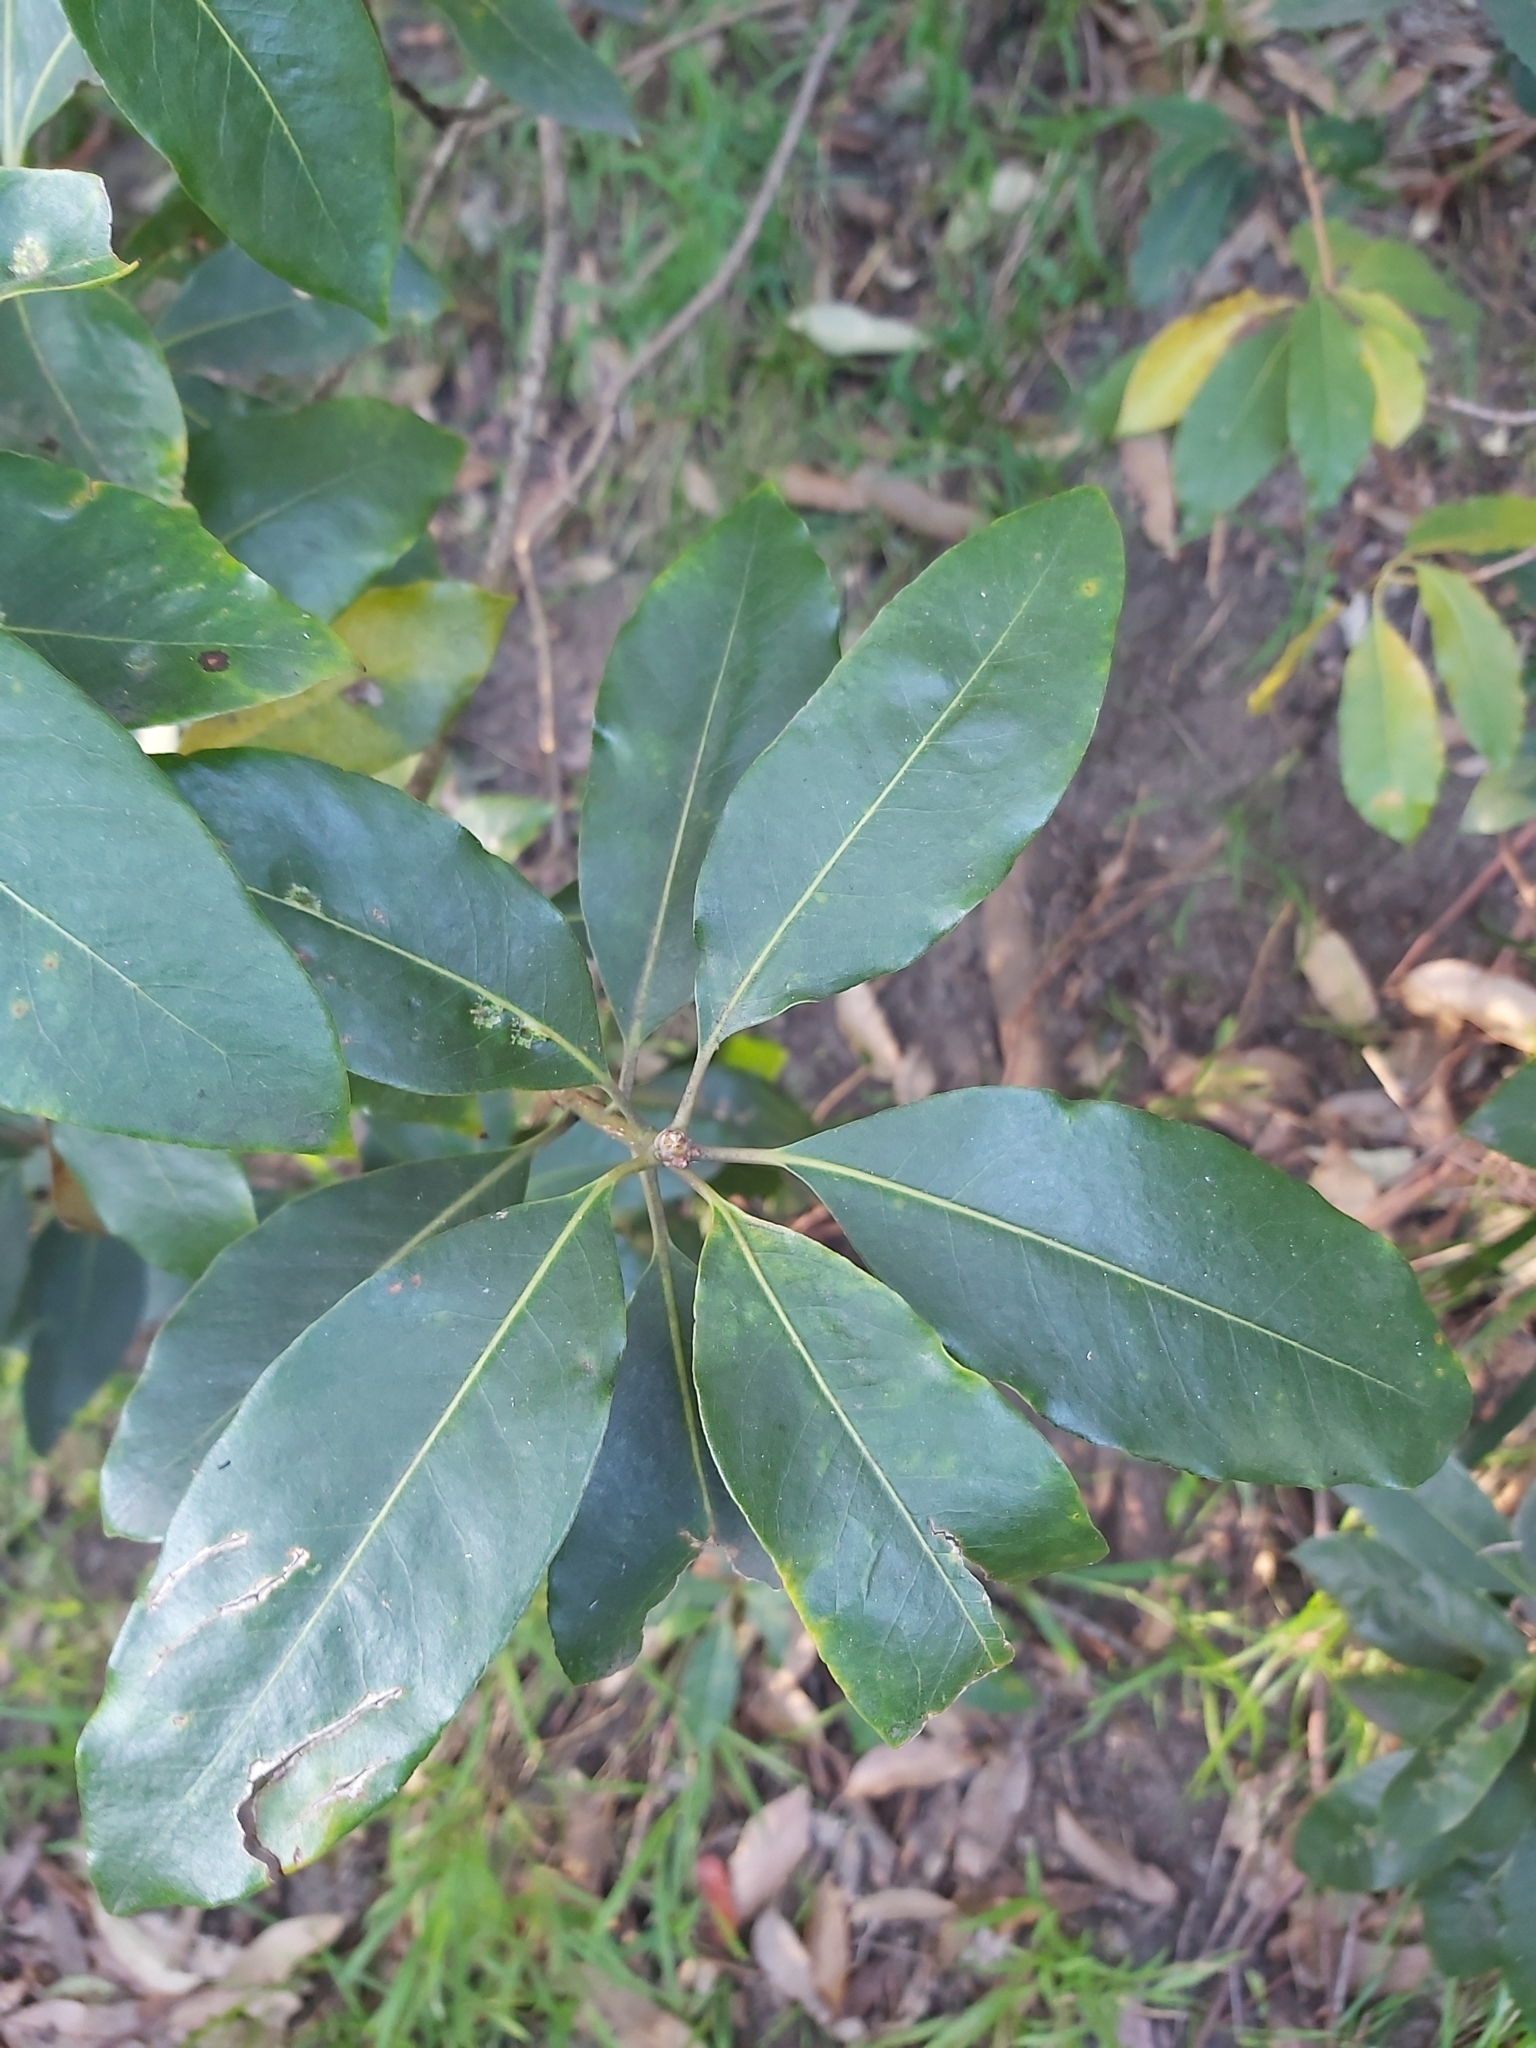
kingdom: Plantae
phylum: Tracheophyta
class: Magnoliopsida
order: Apiales
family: Pittosporaceae
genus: Pittosporum
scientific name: Pittosporum undulatum
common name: Australian cheesewood
